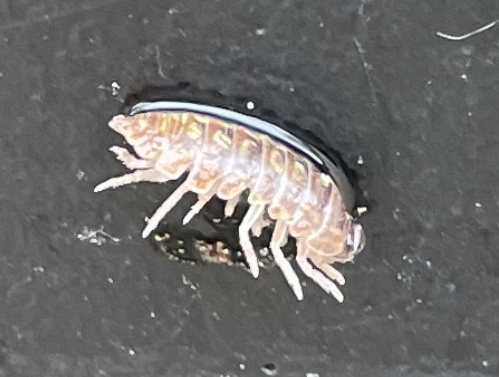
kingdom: Animalia
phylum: Arthropoda
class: Malacostraca
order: Isopoda
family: Armadillidiidae
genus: Armadillidium
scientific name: Armadillidium vulgare
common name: Common pill woodlouse
